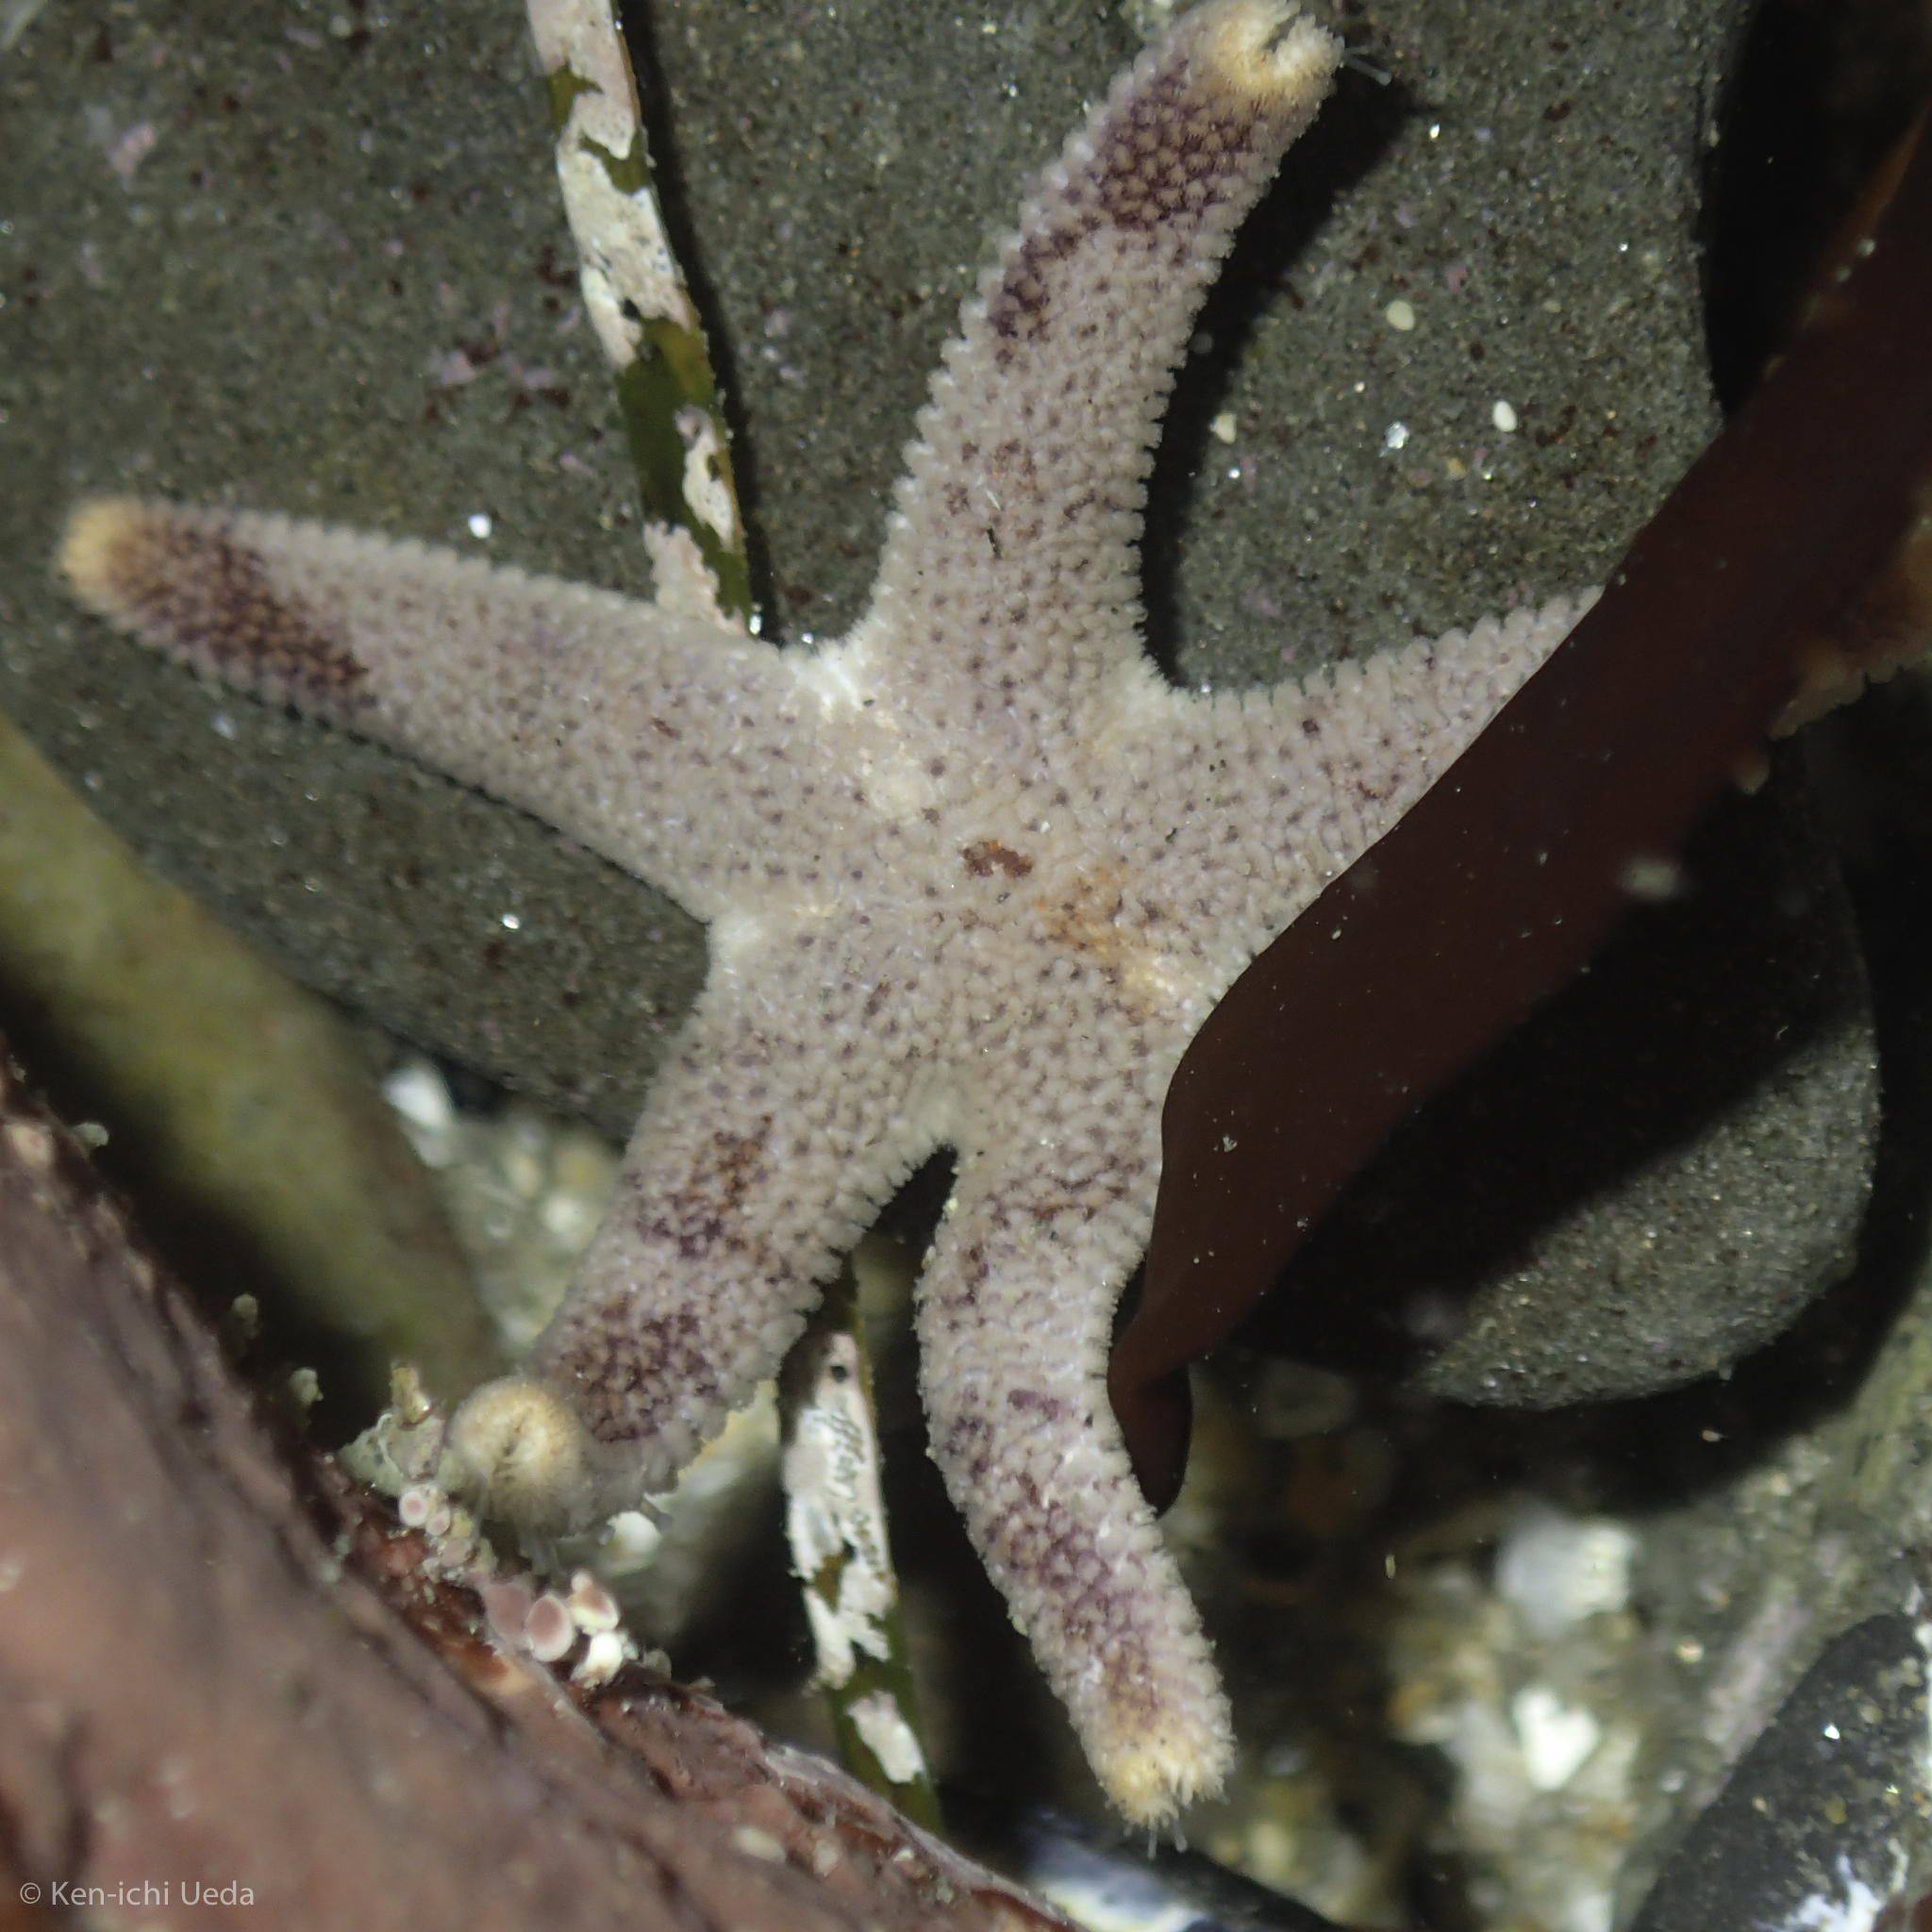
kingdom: Animalia
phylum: Echinodermata
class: Asteroidea
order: Spinulosida
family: Echinasteridae
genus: Henricia
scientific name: Henricia pumila
